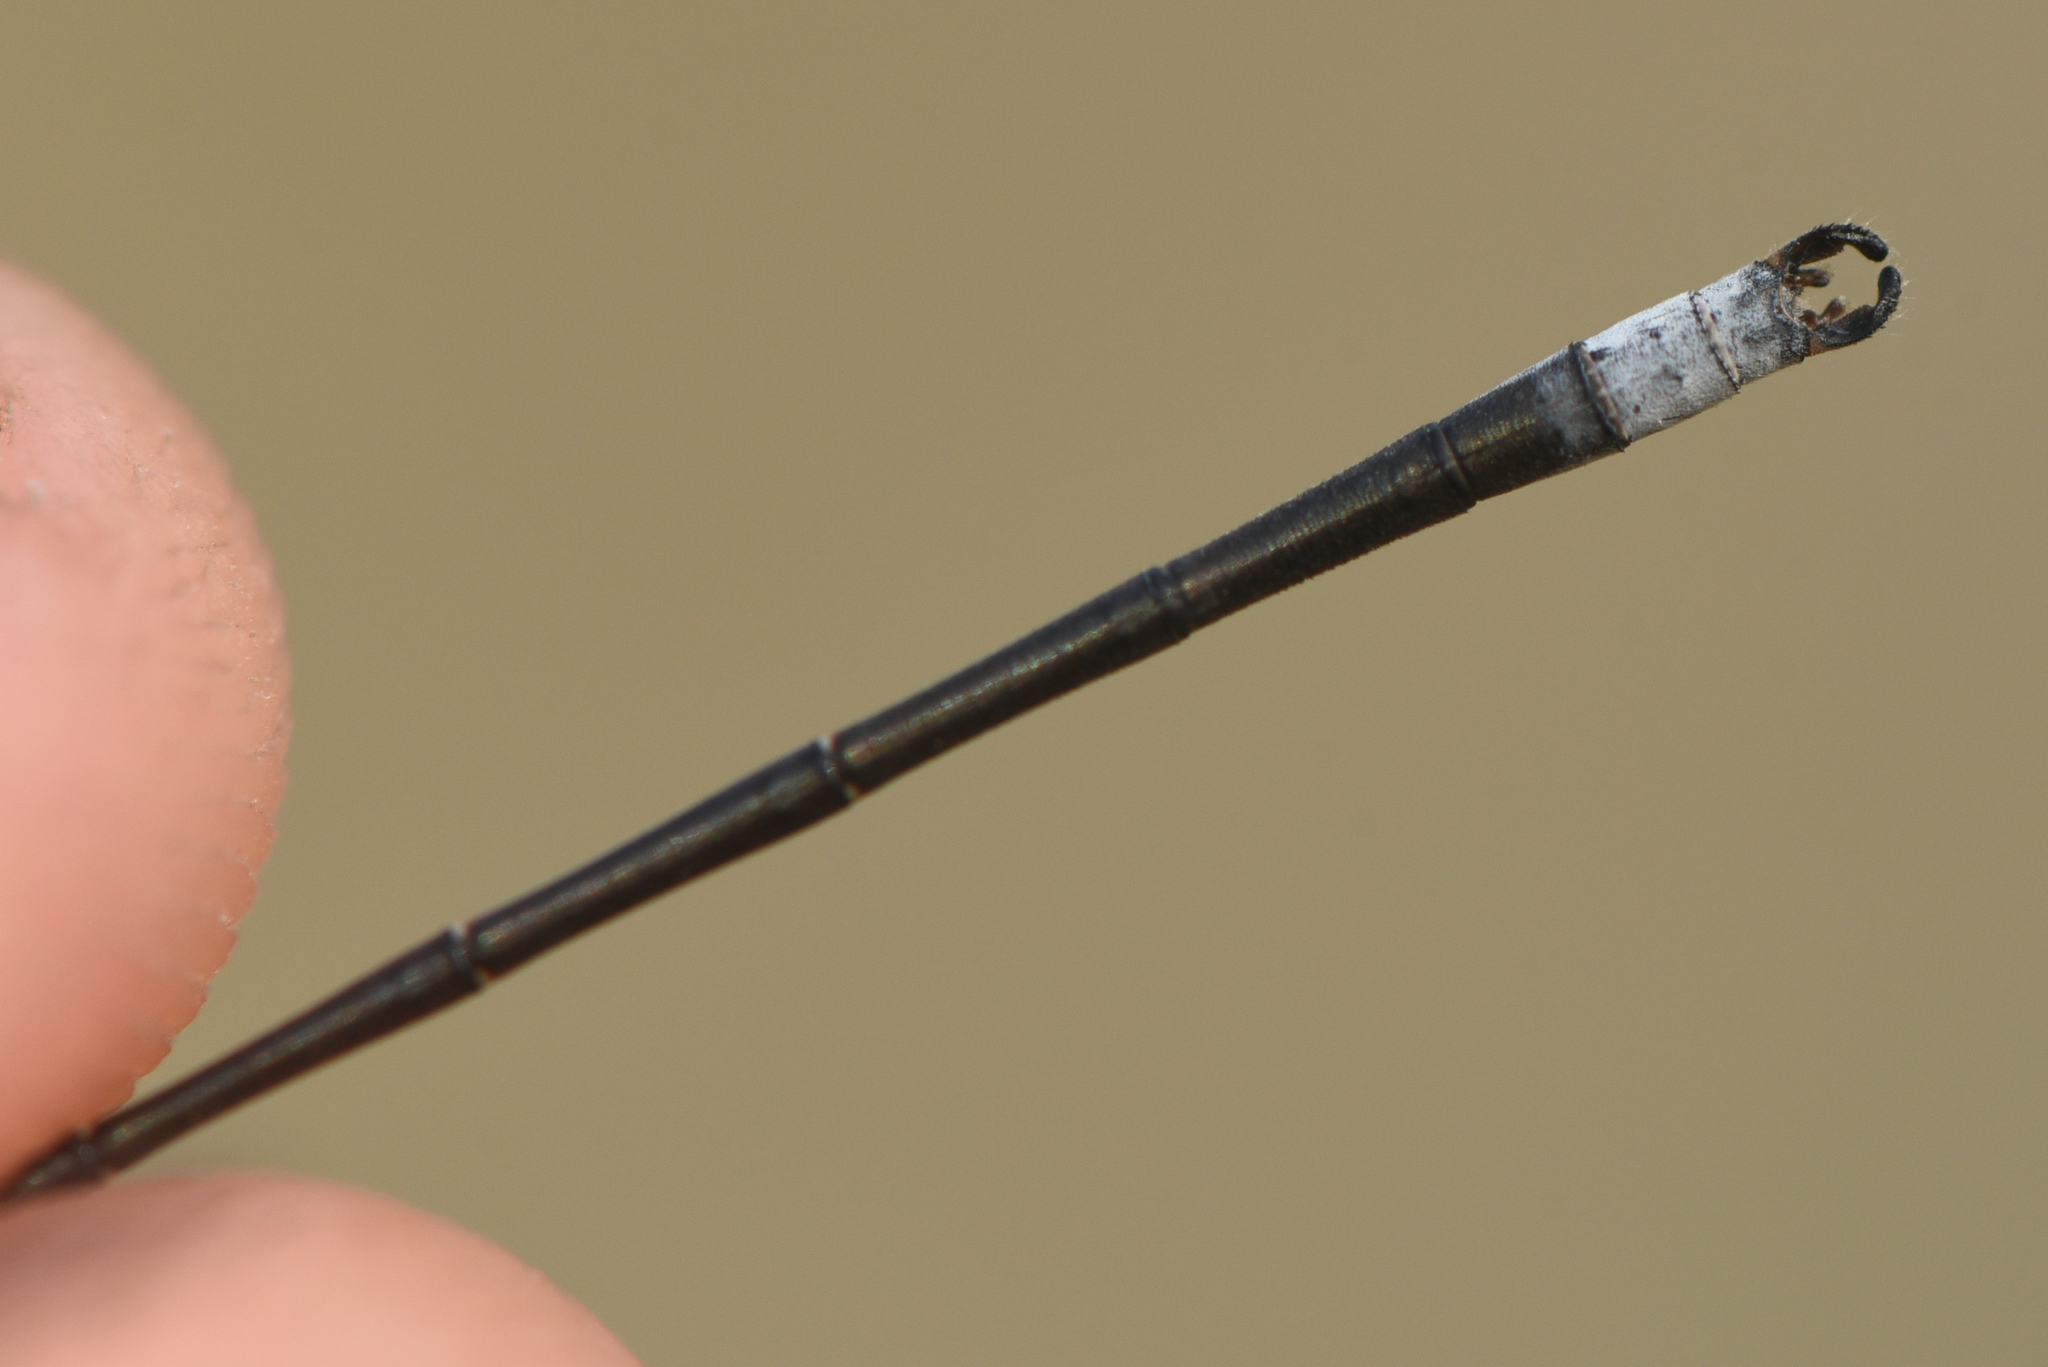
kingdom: Animalia
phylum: Arthropoda
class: Insecta
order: Odonata
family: Lestidae
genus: Lestes
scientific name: Lestes congener
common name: Spotted spreadwing
